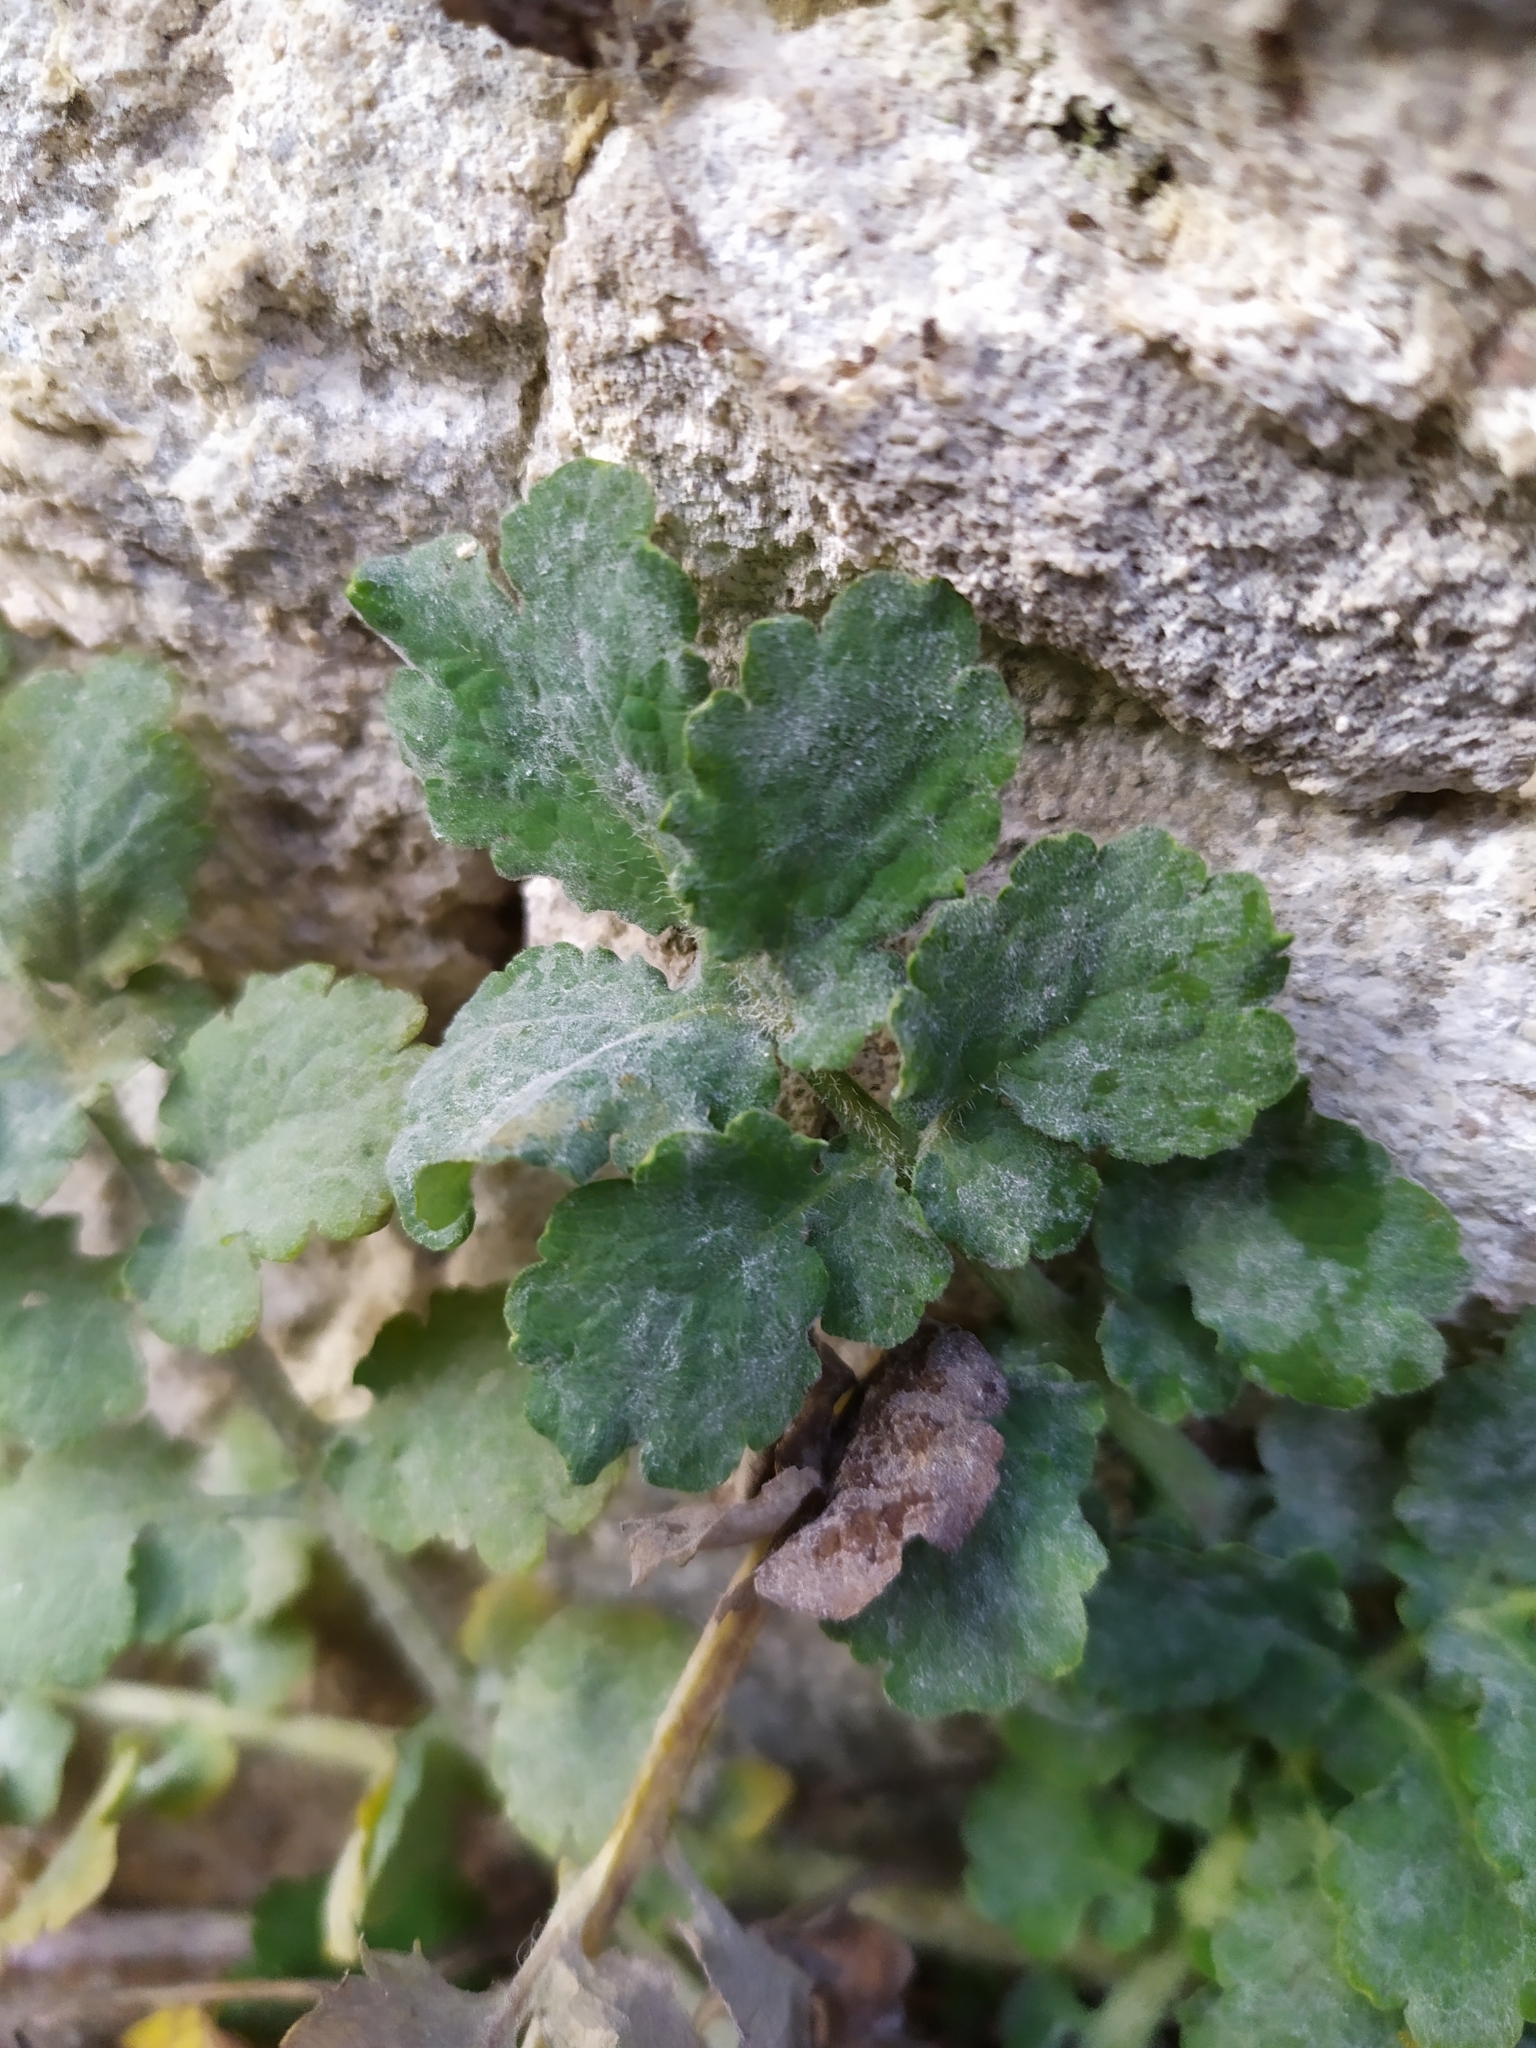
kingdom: Fungi
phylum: Ascomycota
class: Leotiomycetes
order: Helotiales
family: Erysiphaceae
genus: Erysiphe
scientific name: Erysiphe macleayae
